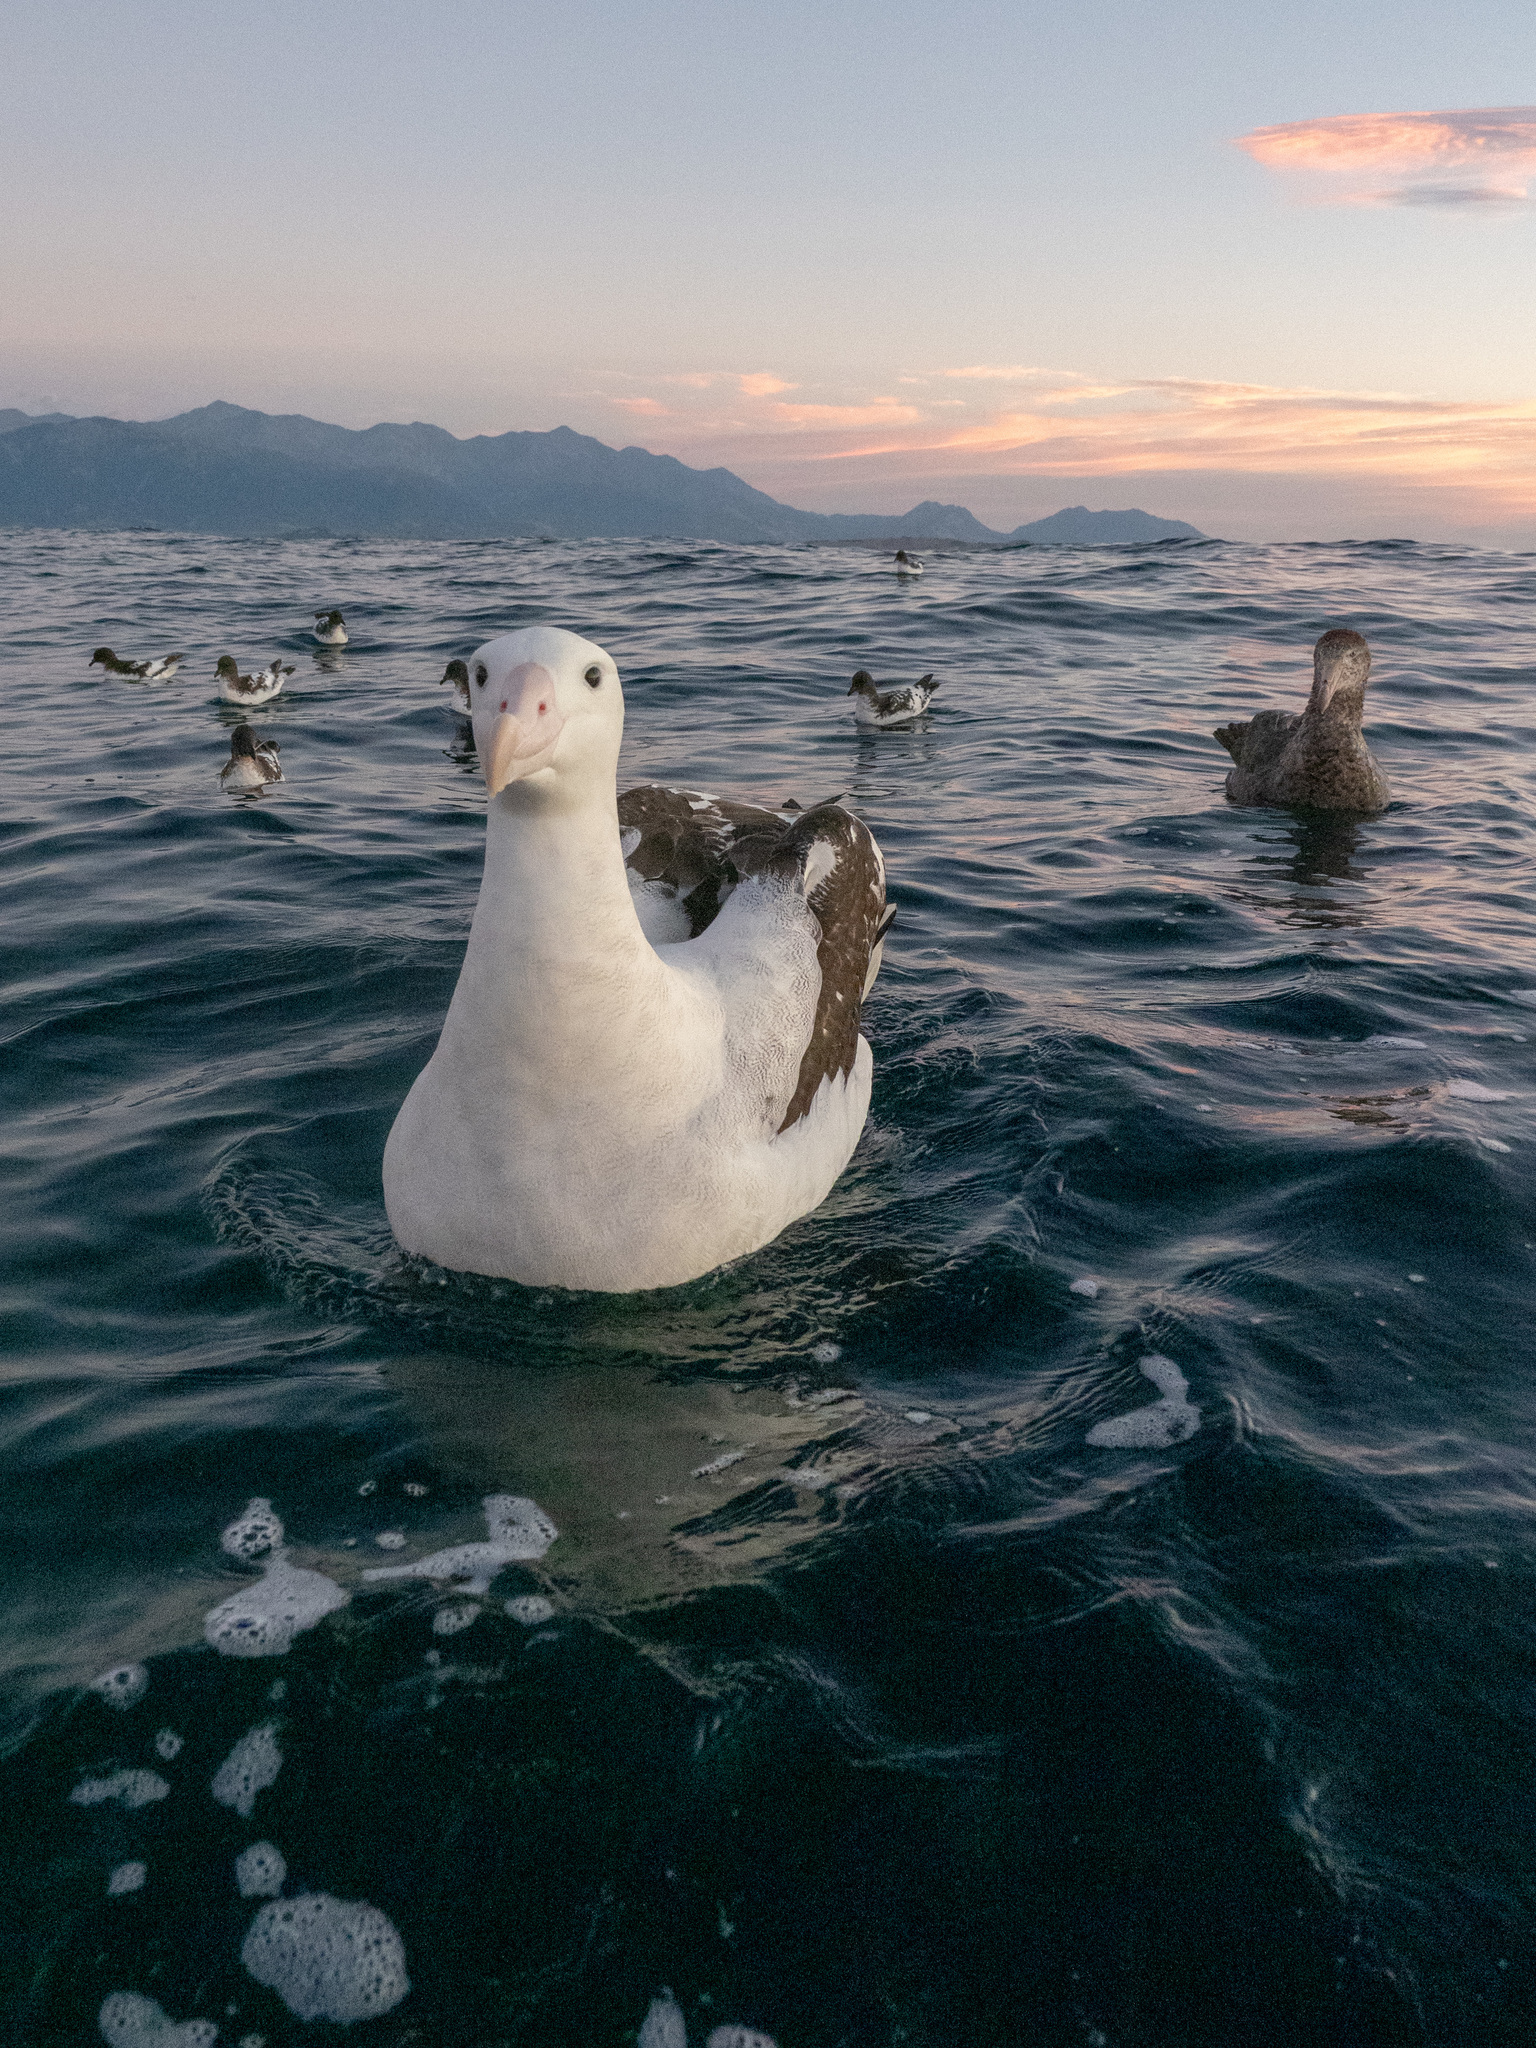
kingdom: Animalia
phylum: Chordata
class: Aves
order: Procellariiformes
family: Diomedeidae
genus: Diomedea
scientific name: Diomedea antipodensis
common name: Antipodean albatross
